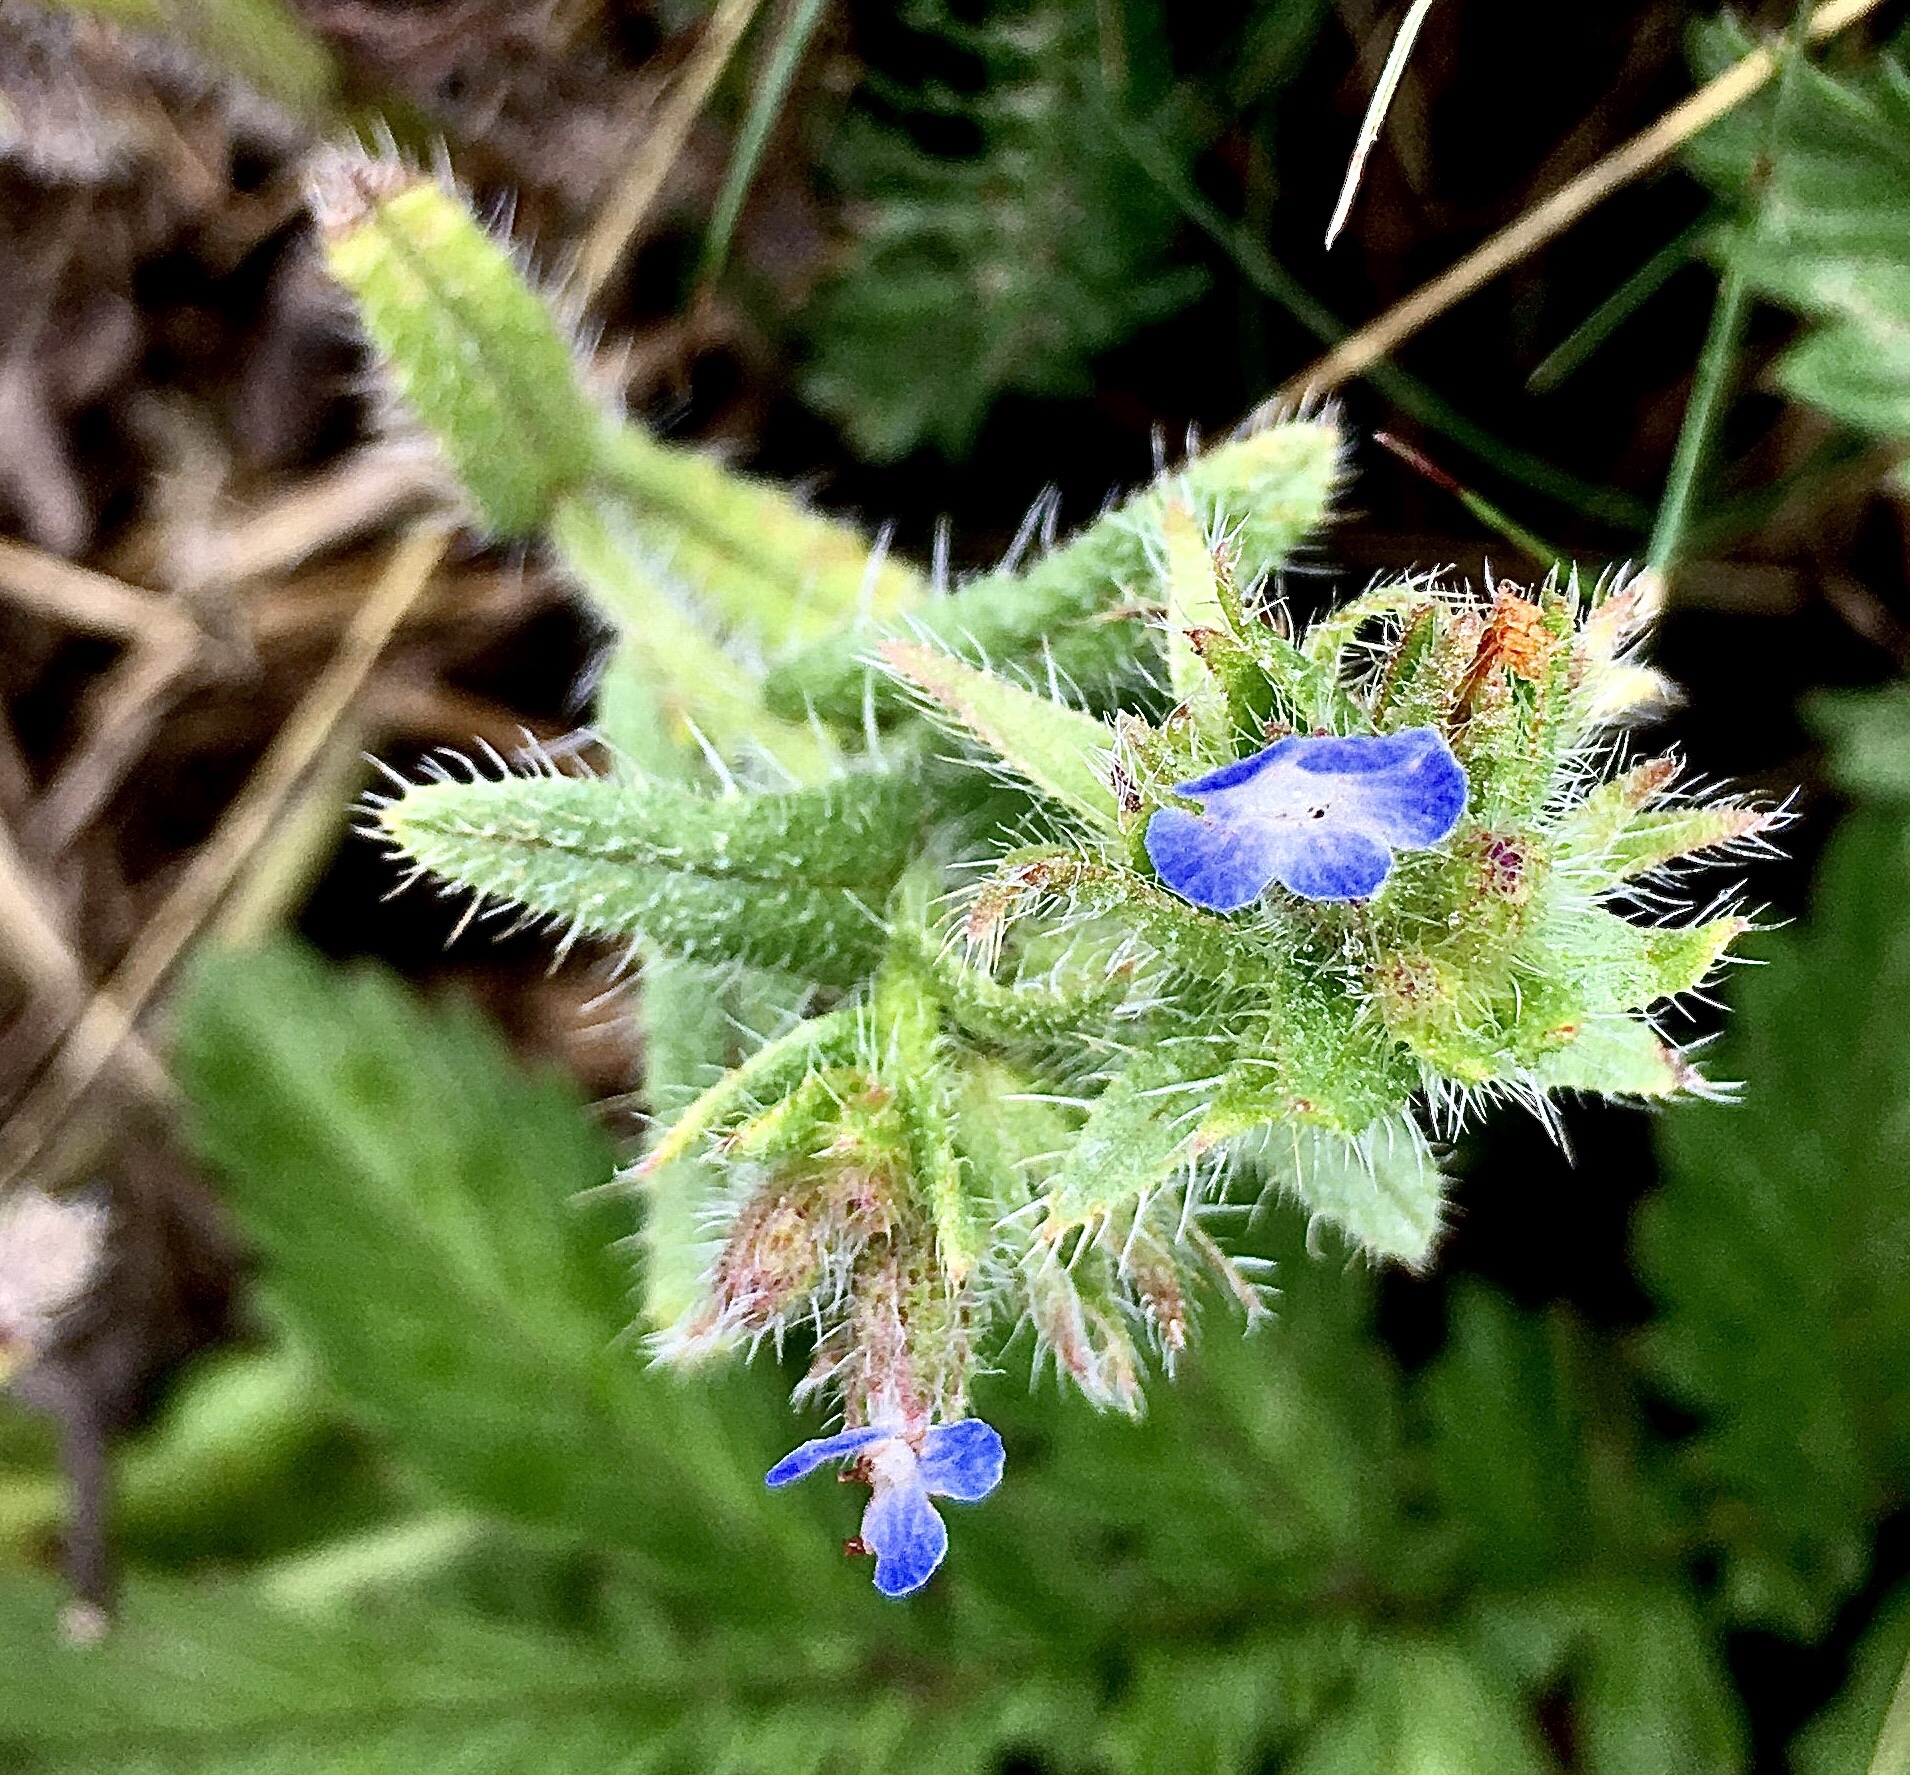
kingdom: Plantae
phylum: Tracheophyta
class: Magnoliopsida
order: Boraginales
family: Boraginaceae
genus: Lycopsis
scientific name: Lycopsis arvensis
